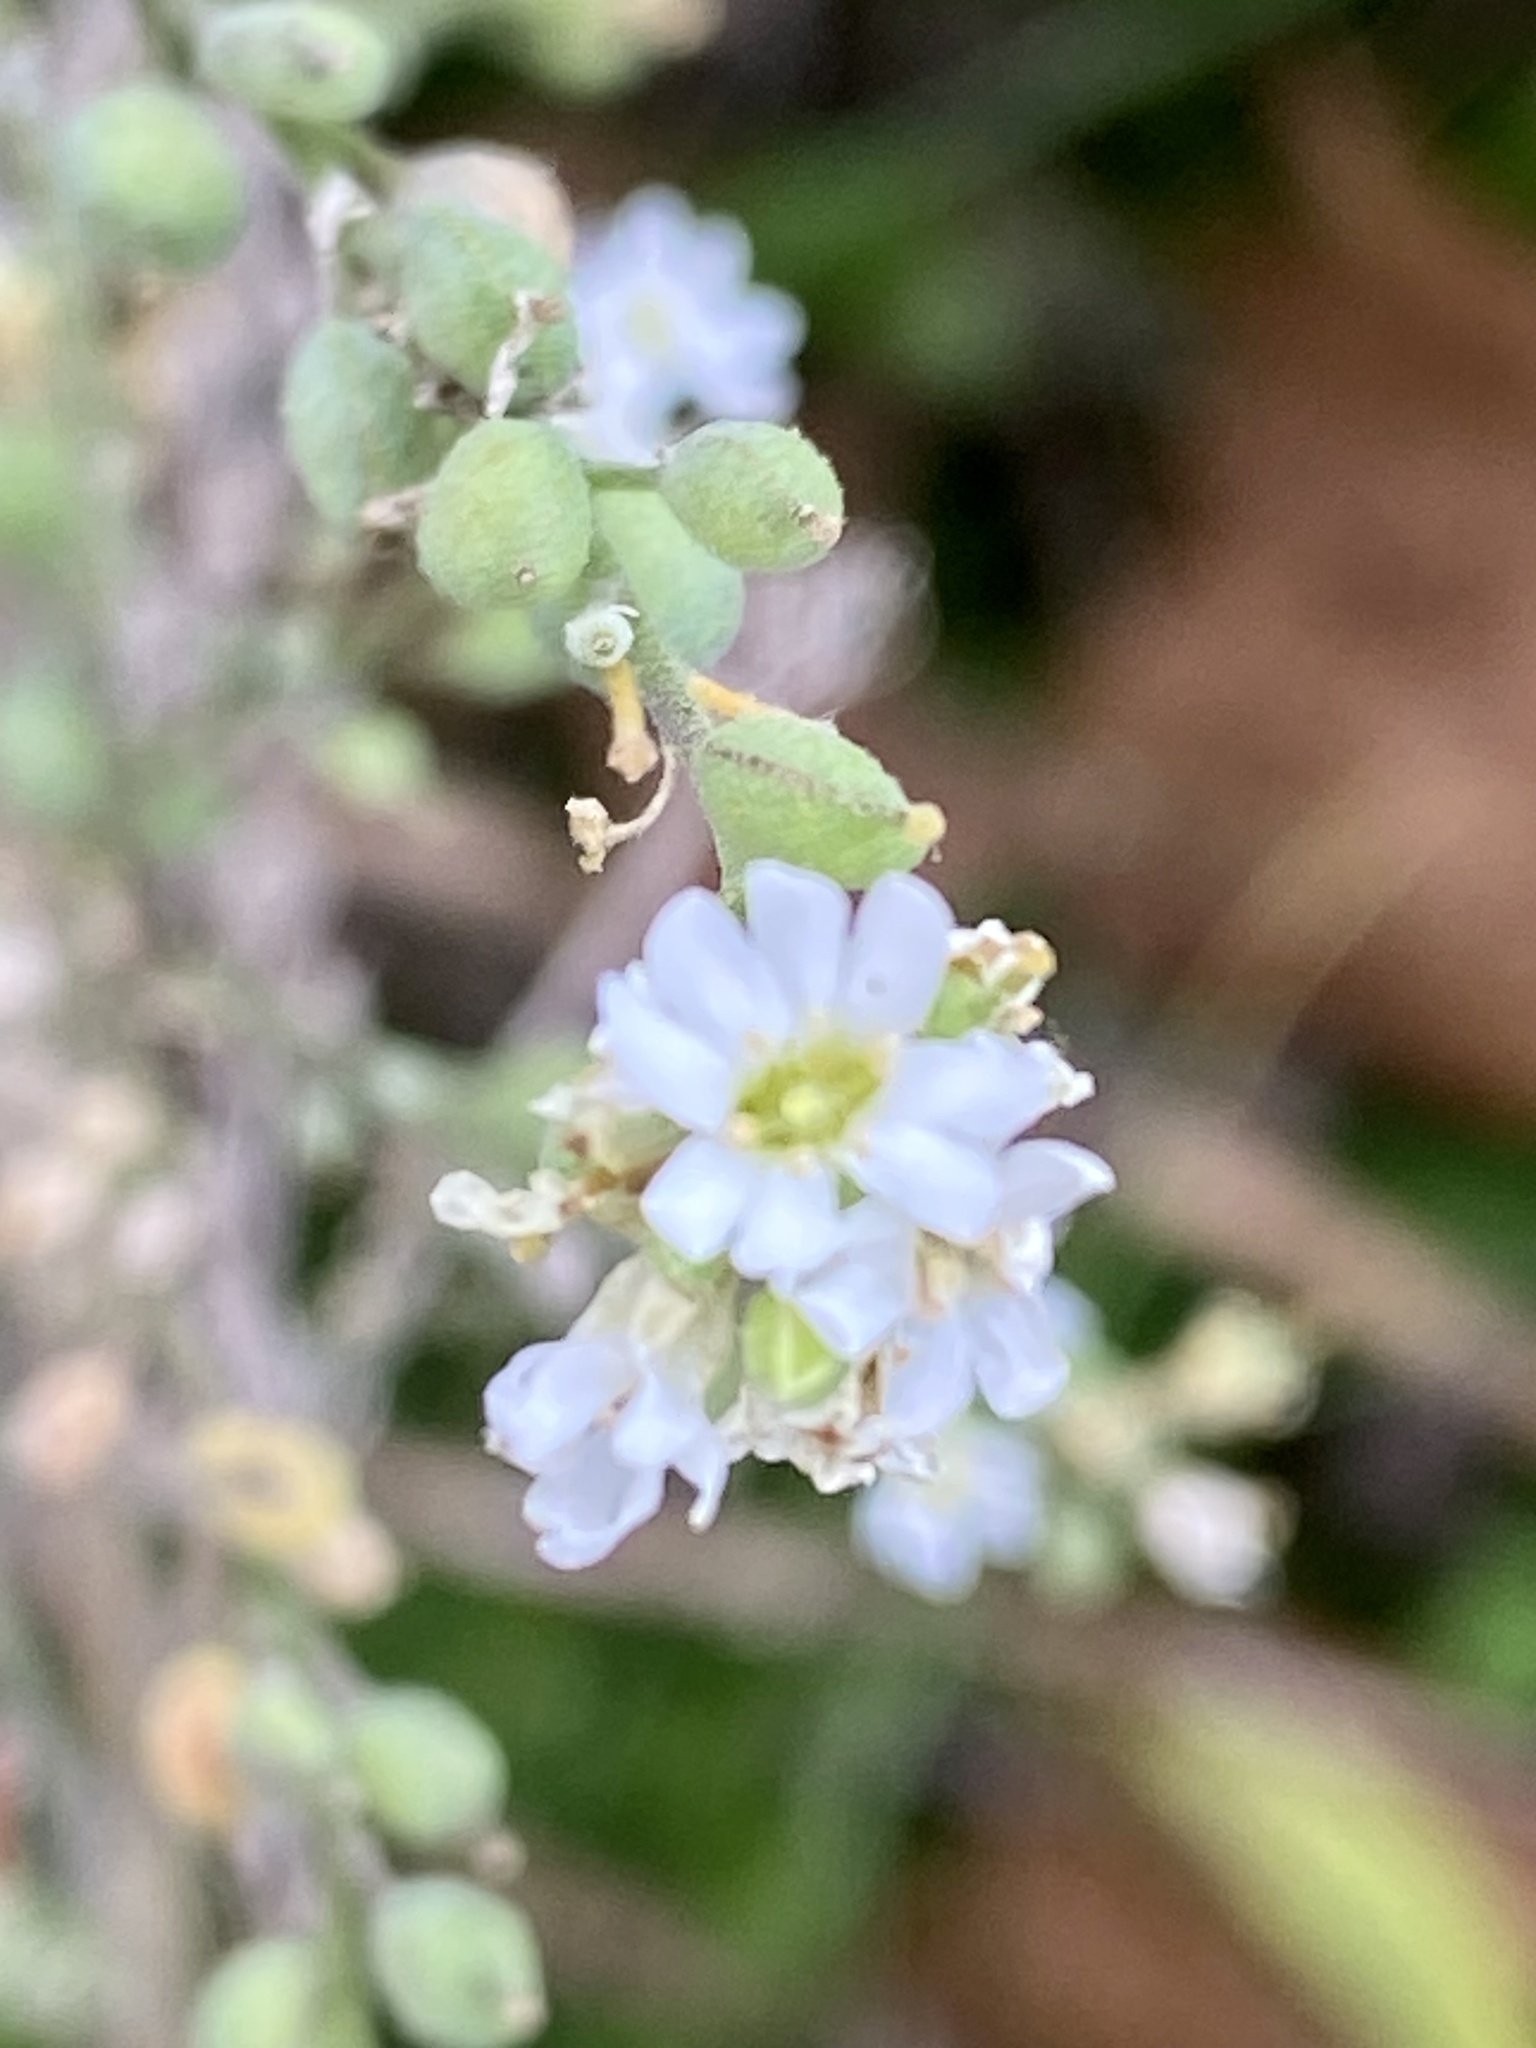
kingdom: Plantae
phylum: Tracheophyta
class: Magnoliopsida
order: Brassicales
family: Brassicaceae
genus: Berteroa
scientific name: Berteroa incana
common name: Hoary alison
